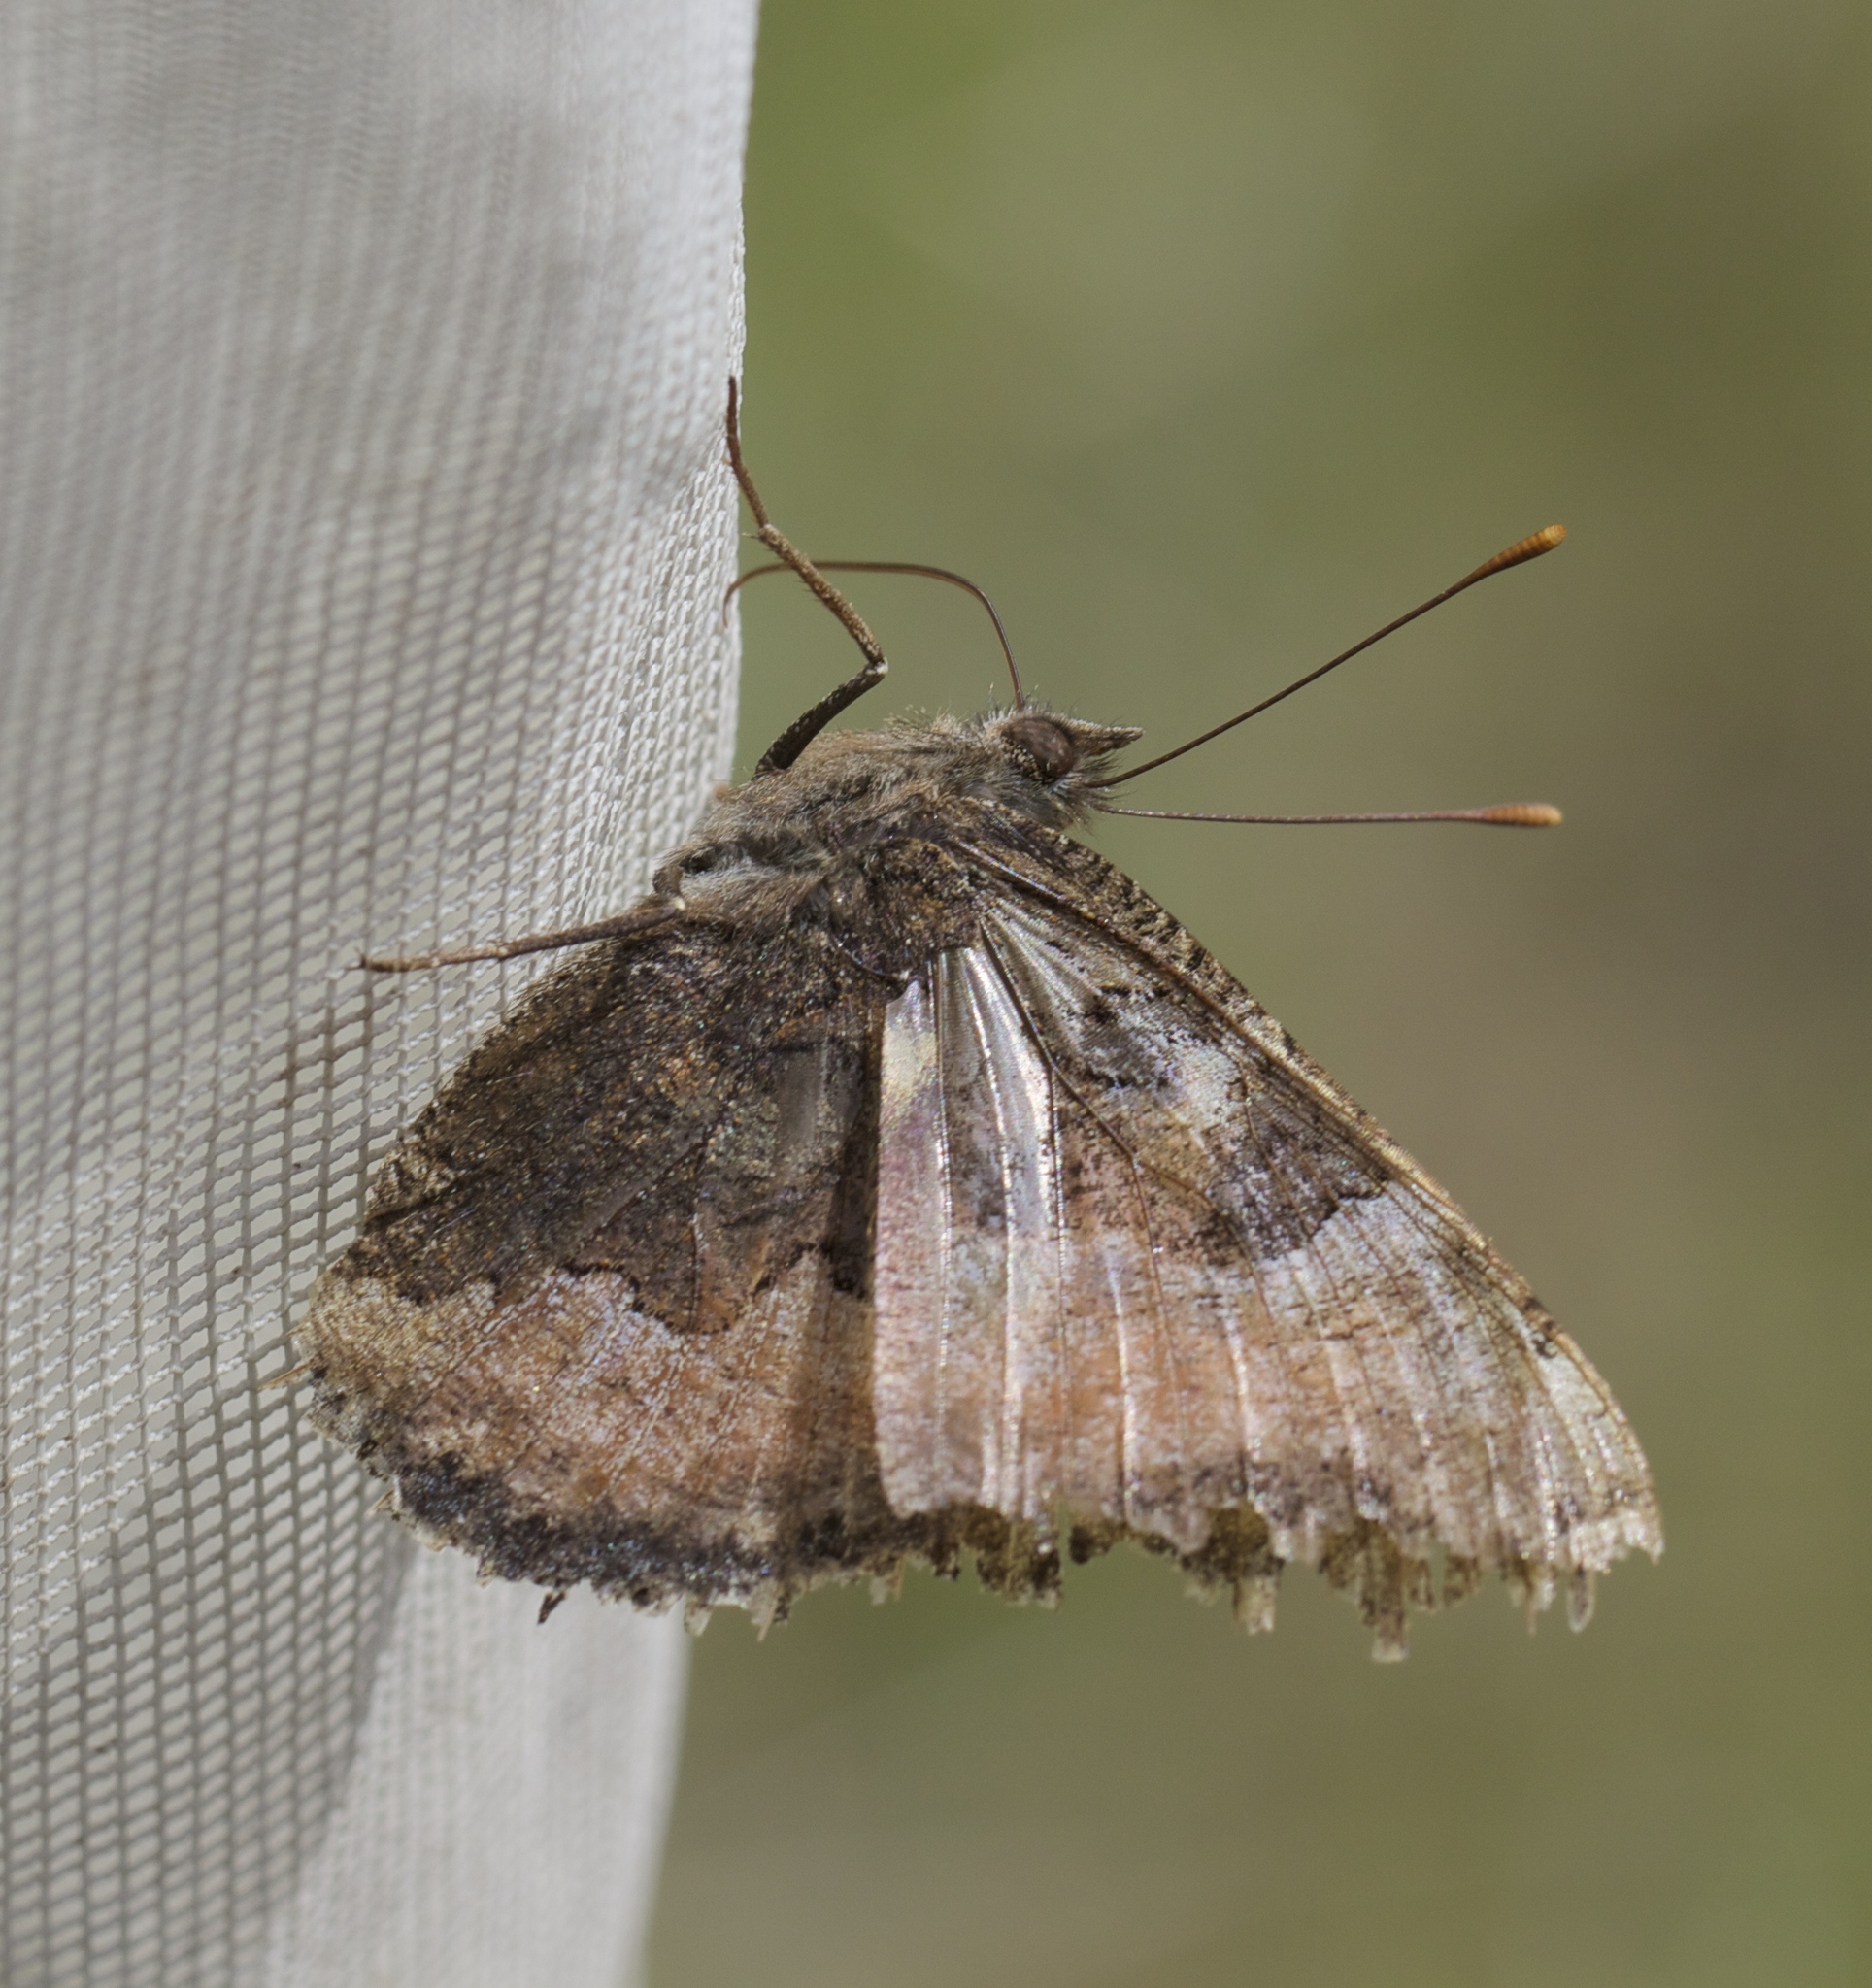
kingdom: Animalia
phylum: Arthropoda
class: Insecta
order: Lepidoptera
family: Nymphalidae
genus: Nymphalis
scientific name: Nymphalis californica
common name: California tortoiseshell
